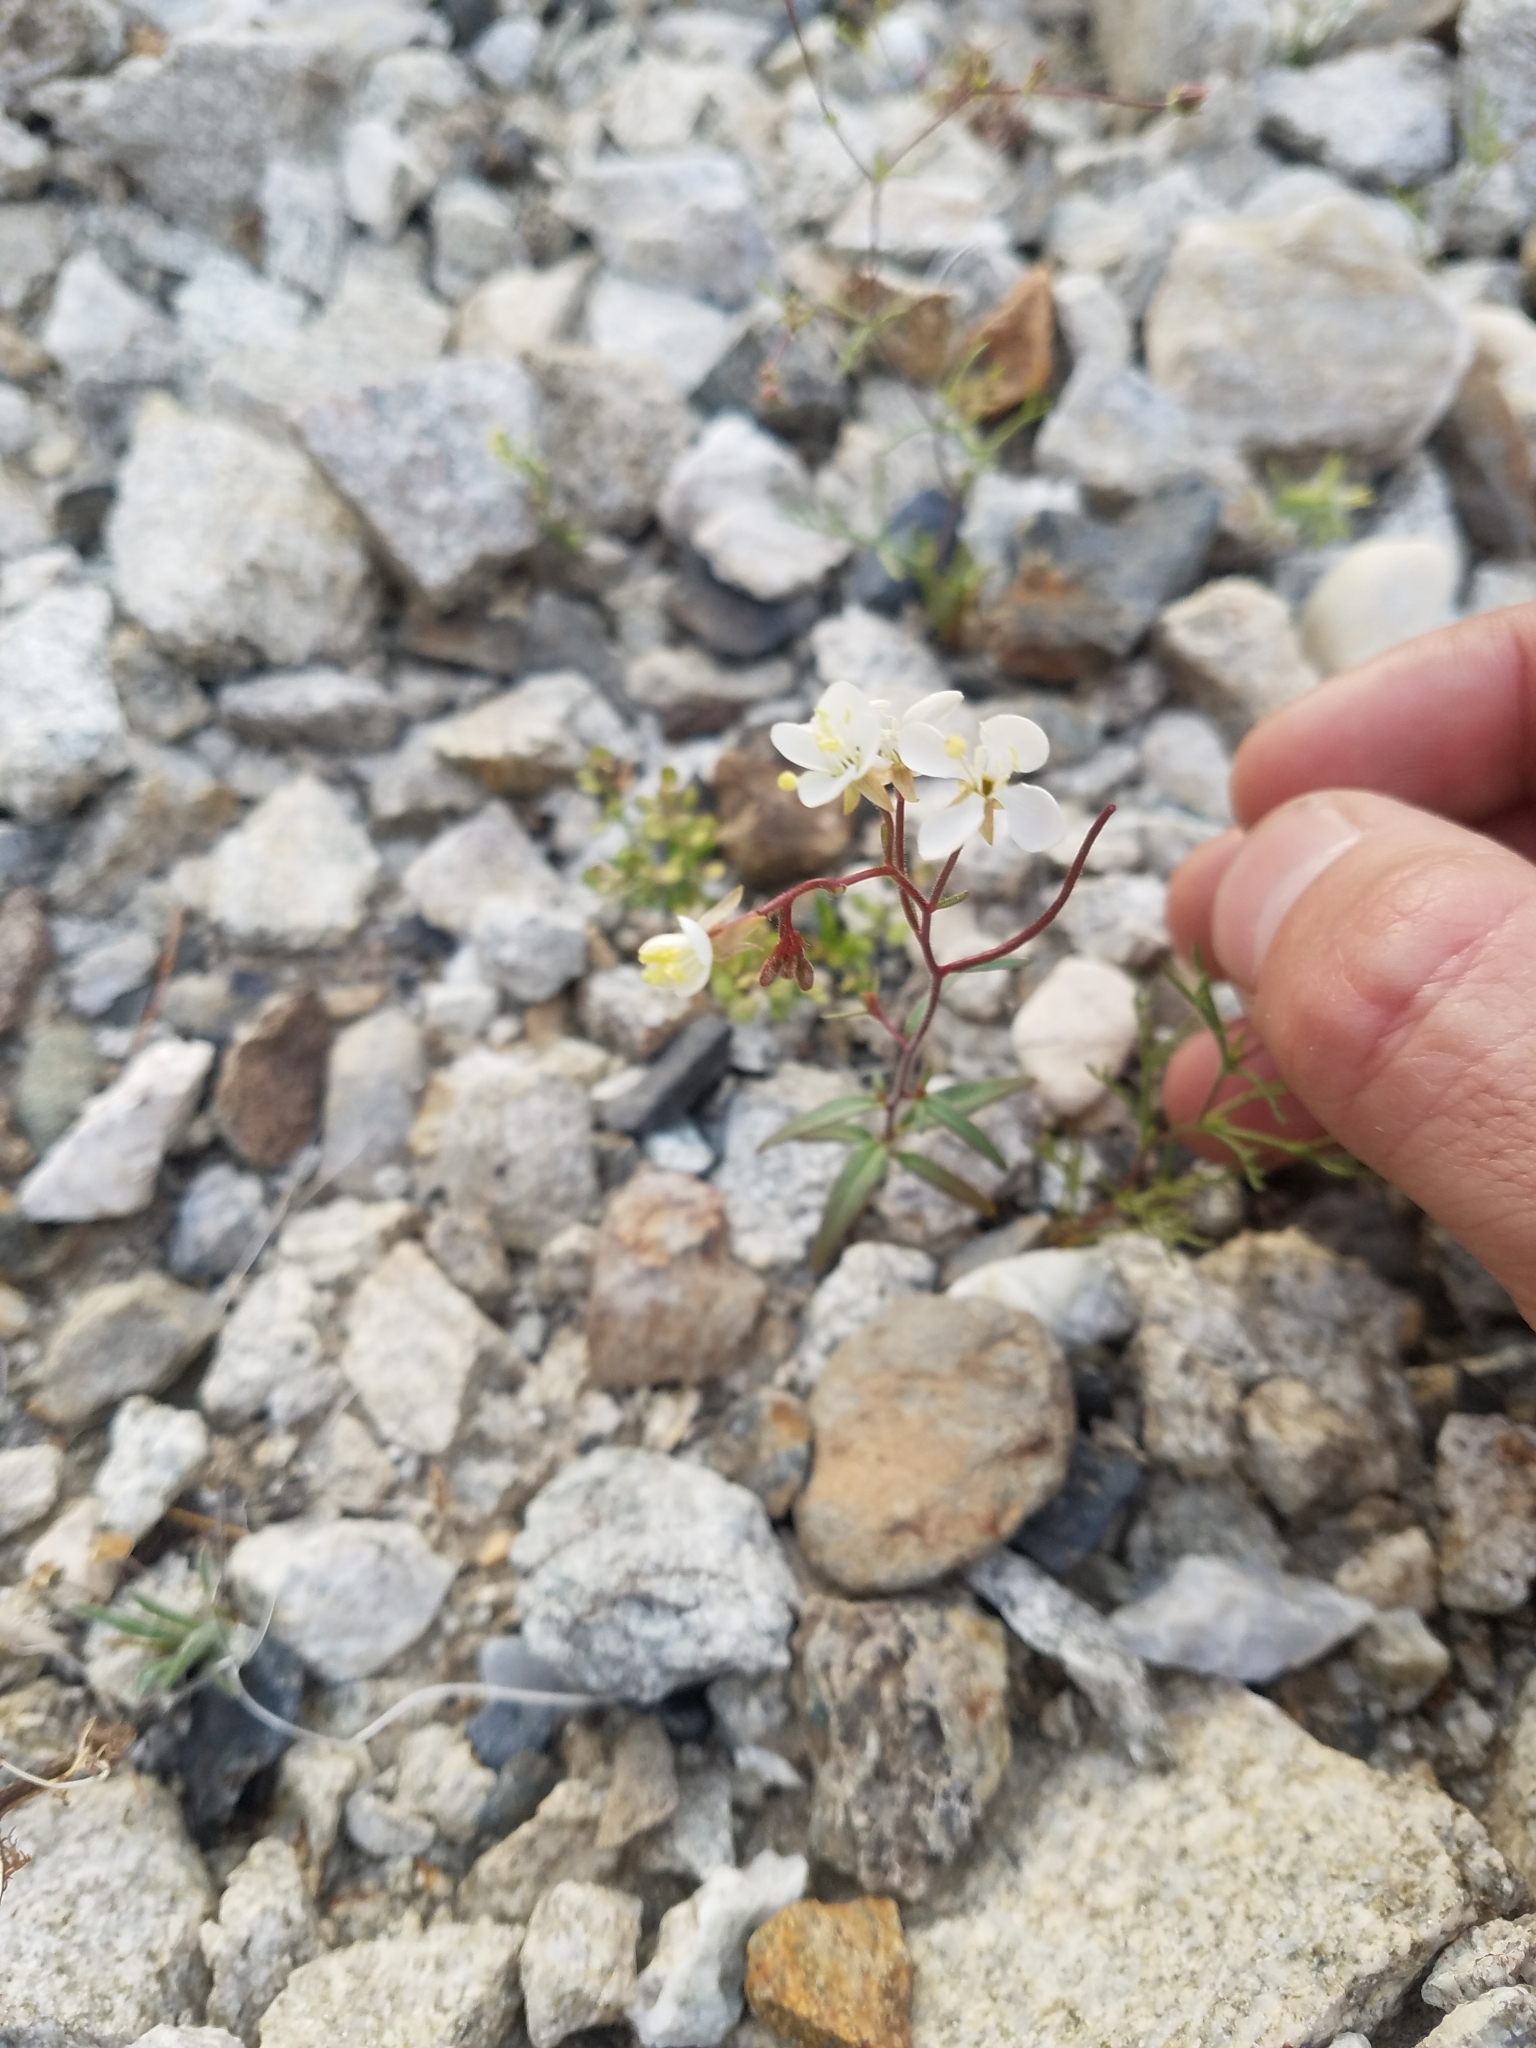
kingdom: Plantae
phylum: Tracheophyta
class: Magnoliopsida
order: Myrtales
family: Onagraceae
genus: Eremothera
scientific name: Eremothera refracta
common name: Narrowleaf suncup
